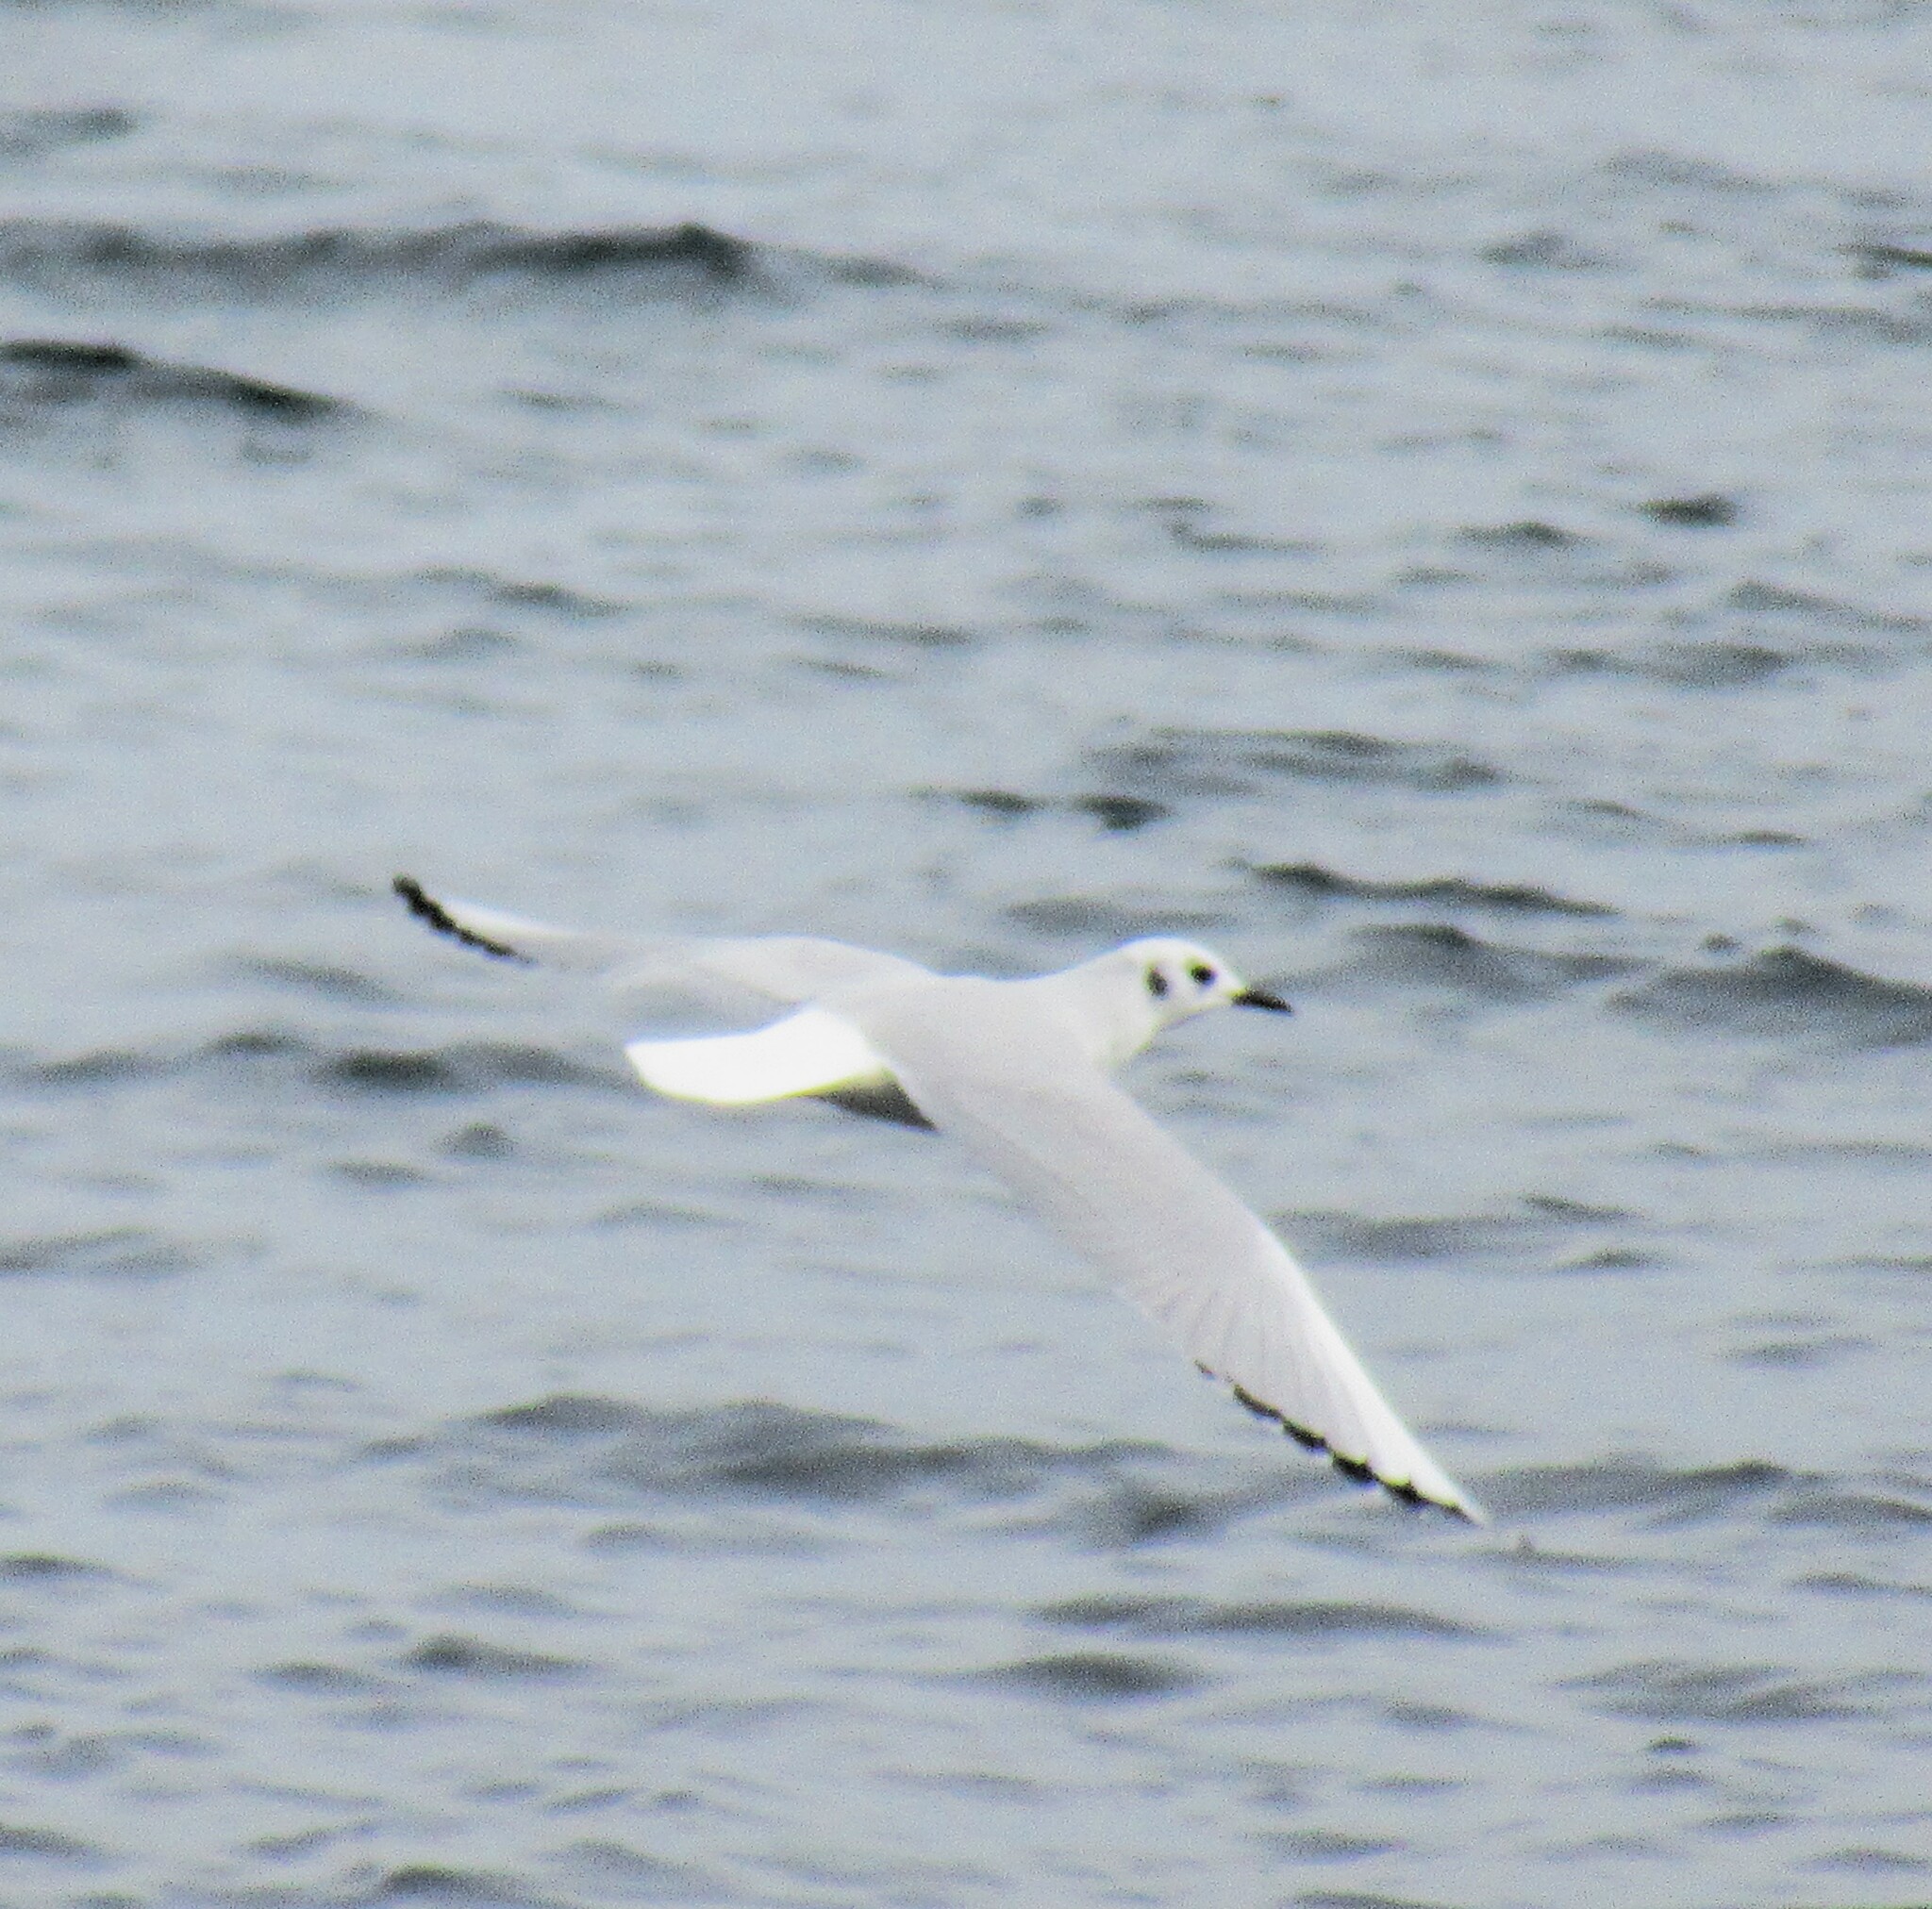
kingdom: Animalia
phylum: Chordata
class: Aves
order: Charadriiformes
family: Laridae
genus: Chroicocephalus
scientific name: Chroicocephalus philadelphia
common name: Bonaparte's gull
